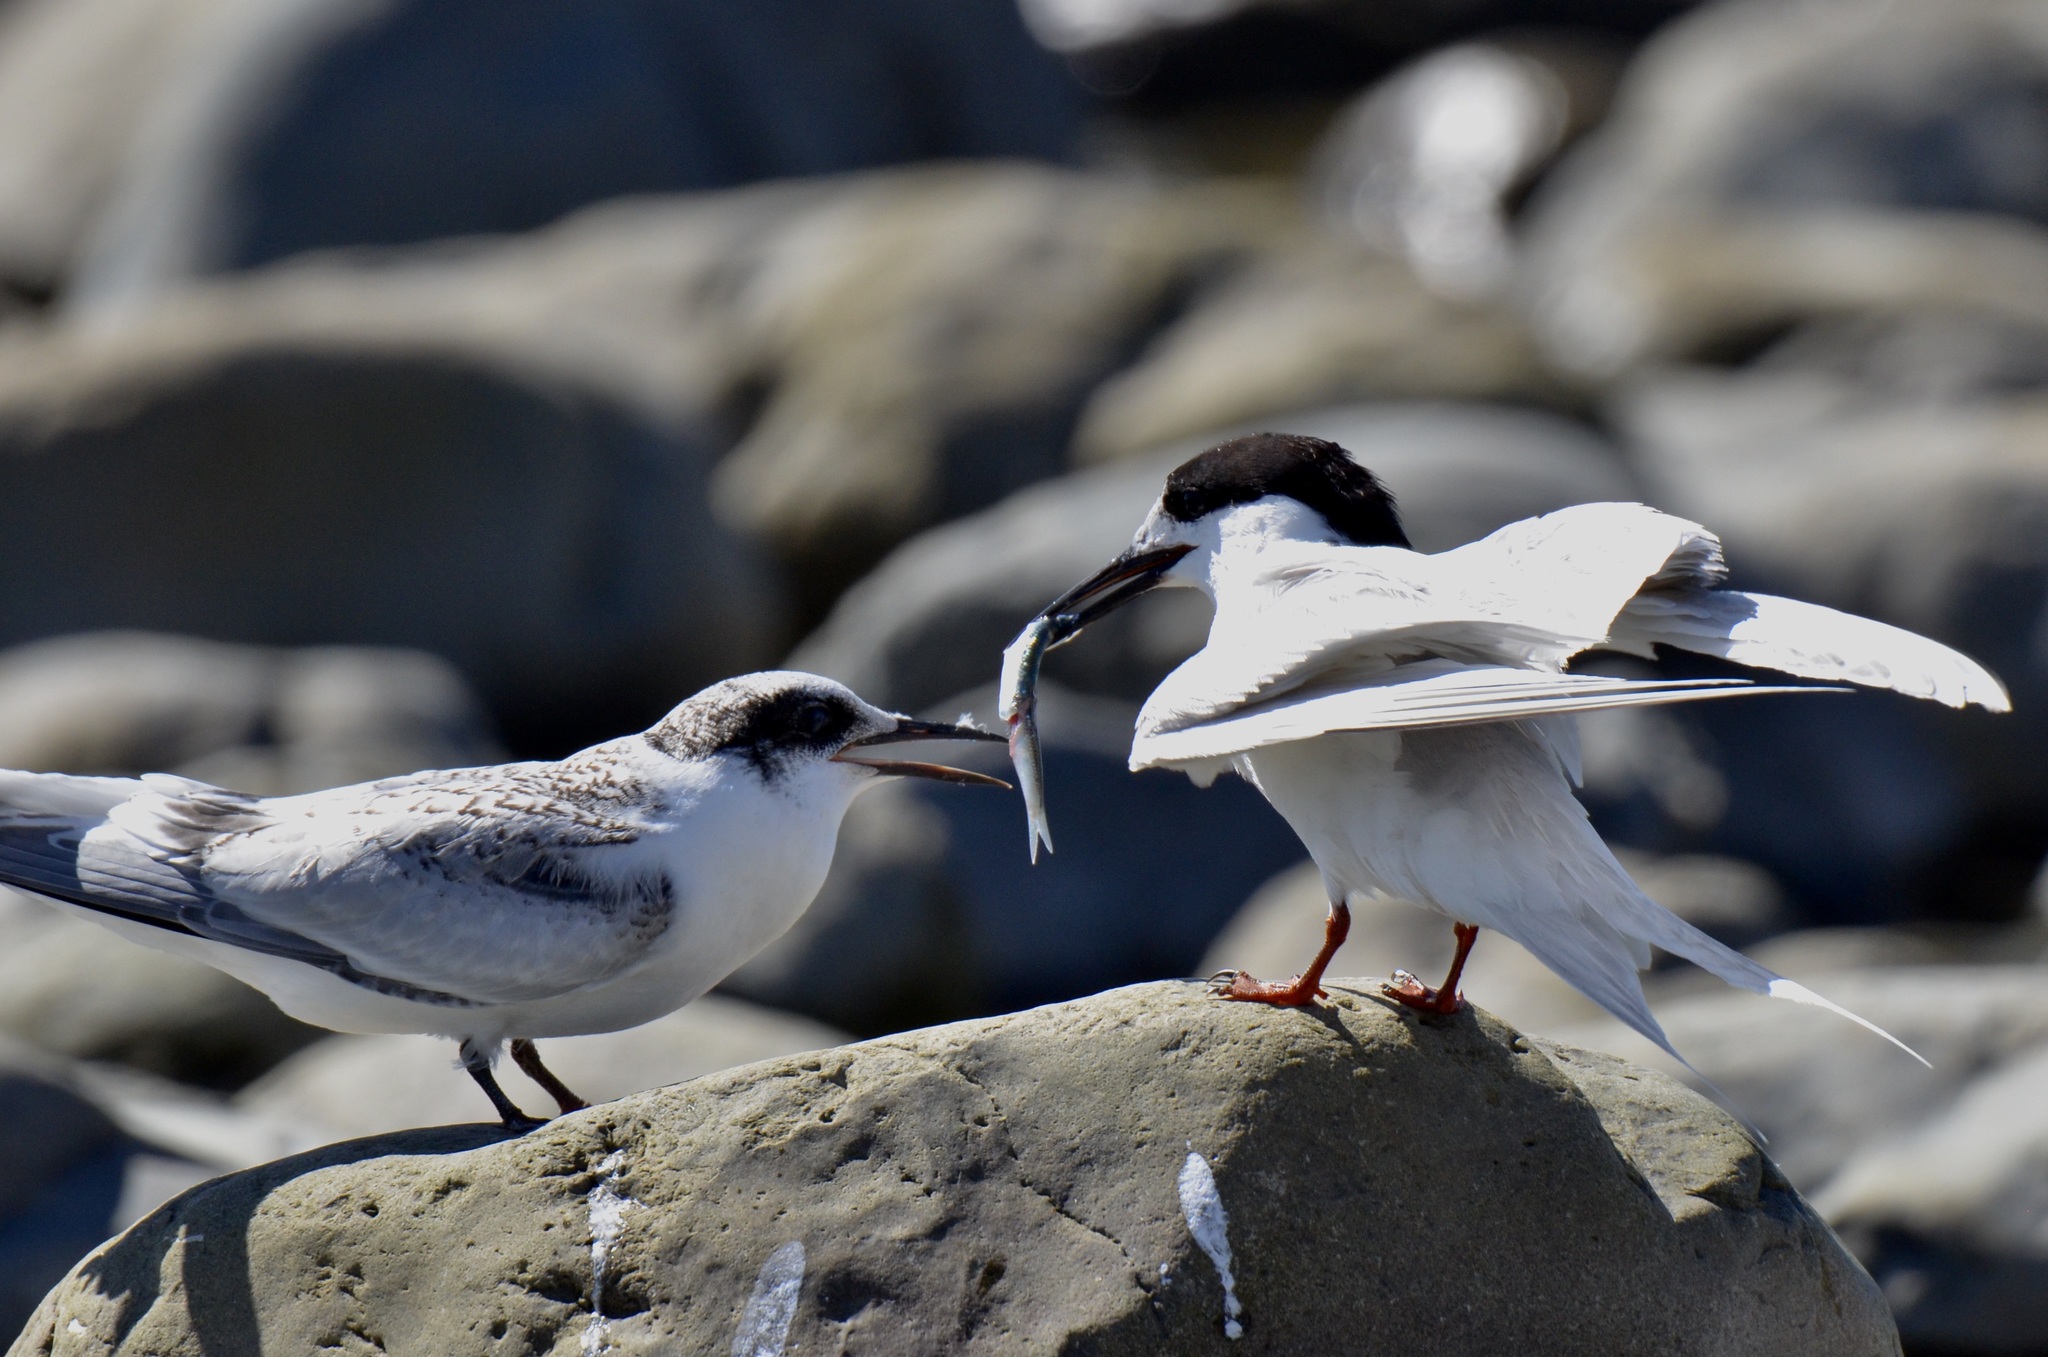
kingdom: Animalia
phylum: Chordata
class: Aves
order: Charadriiformes
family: Laridae
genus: Sterna
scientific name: Sterna striata
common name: White-fronted tern
